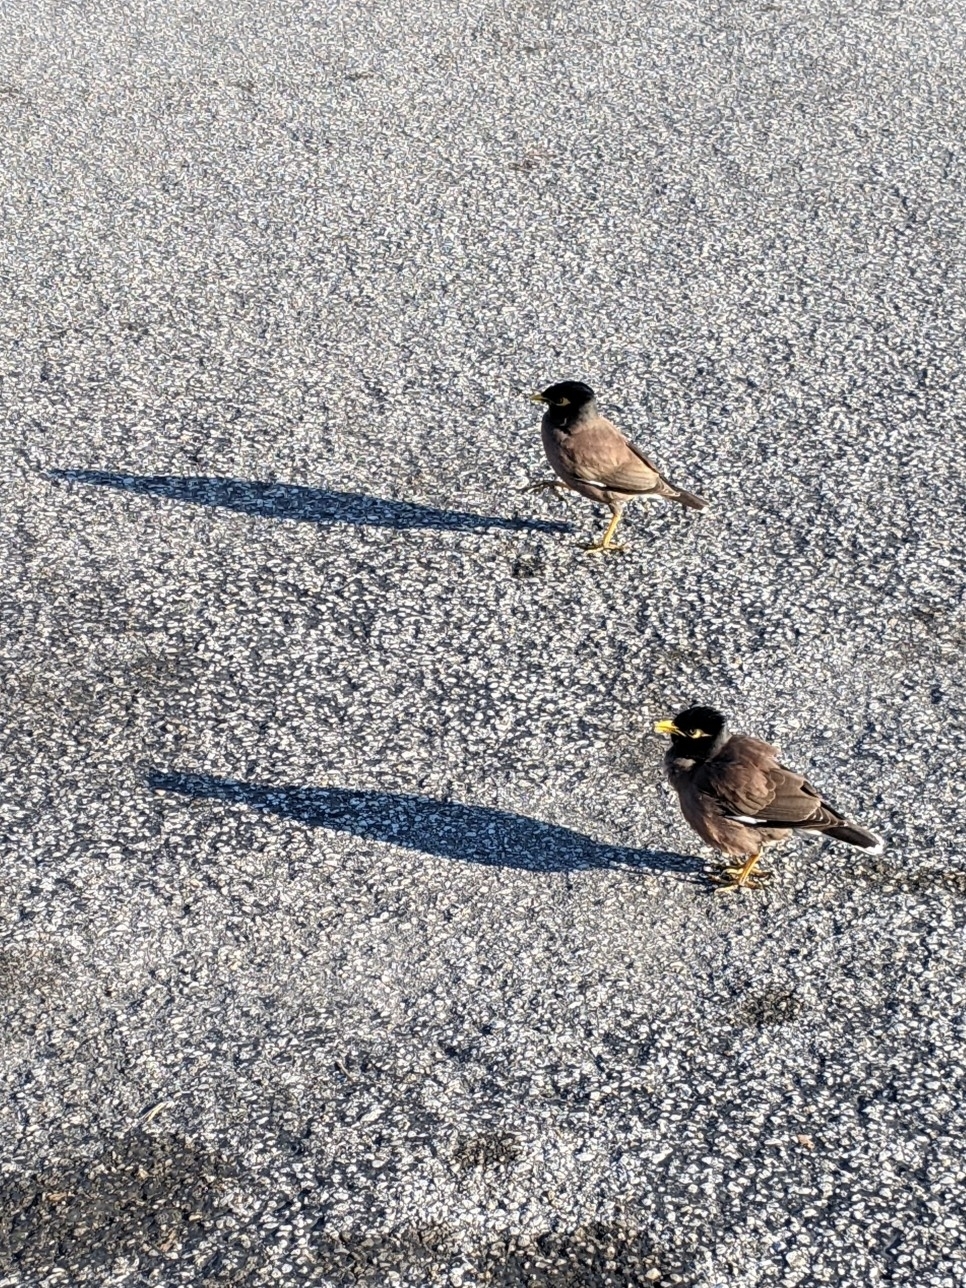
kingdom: Animalia
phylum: Chordata
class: Aves
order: Passeriformes
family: Sturnidae
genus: Acridotheres
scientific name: Acridotheres tristis
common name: Common myna
